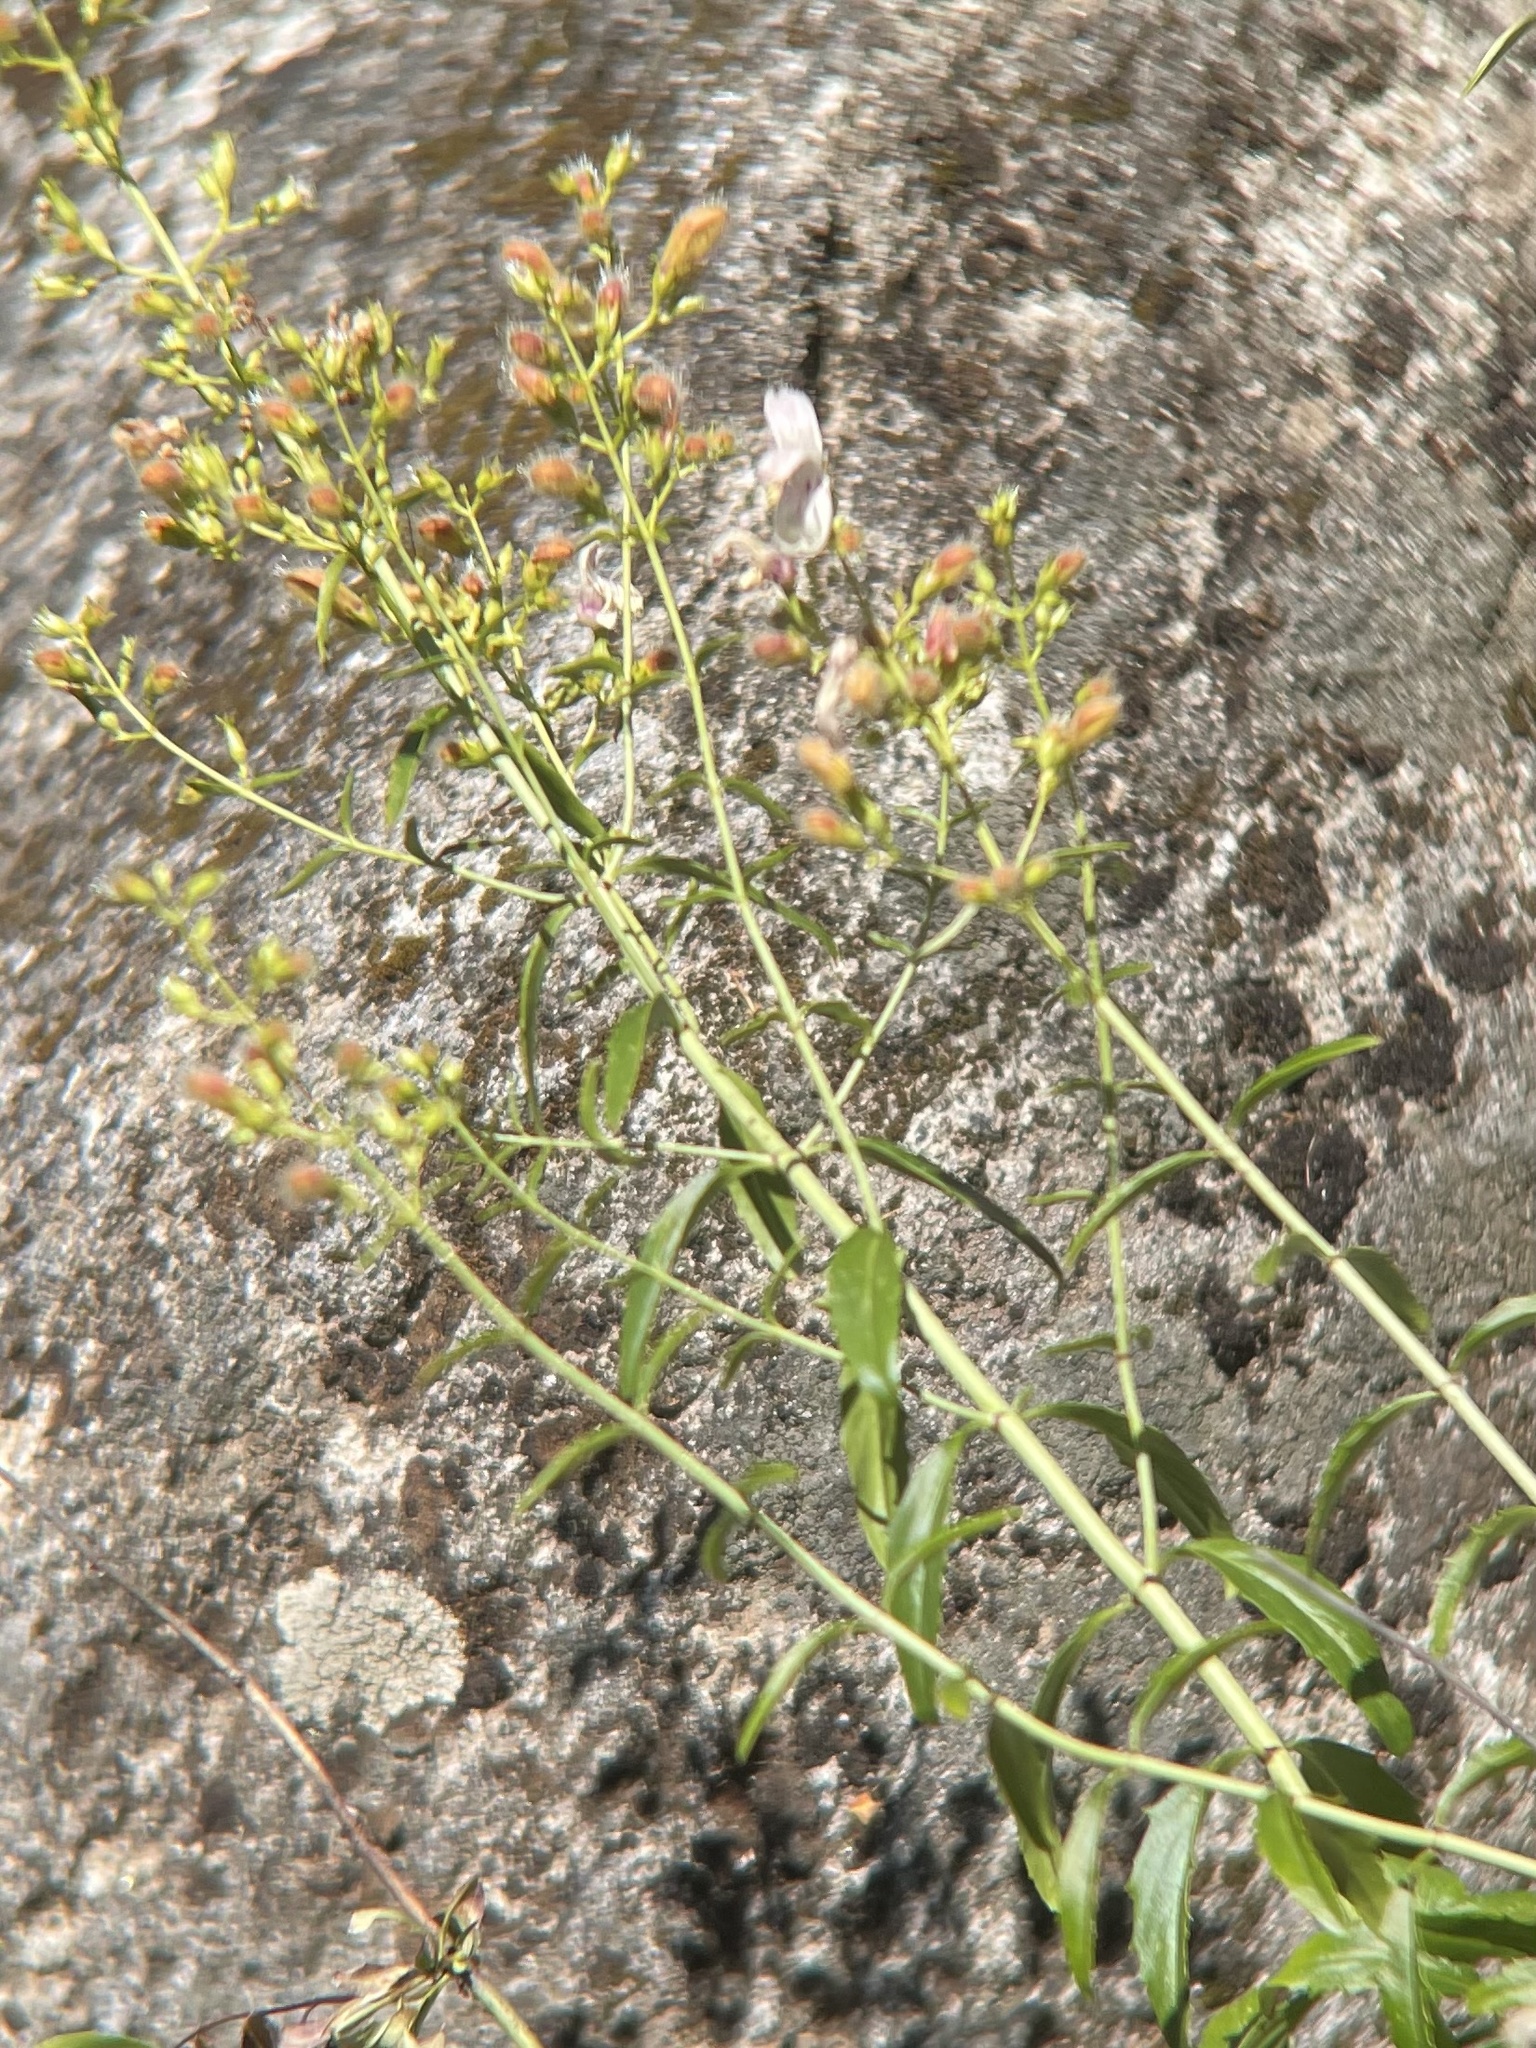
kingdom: Plantae
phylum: Tracheophyta
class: Magnoliopsida
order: Lamiales
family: Plantaginaceae
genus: Keckiella
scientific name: Keckiella breviflora
